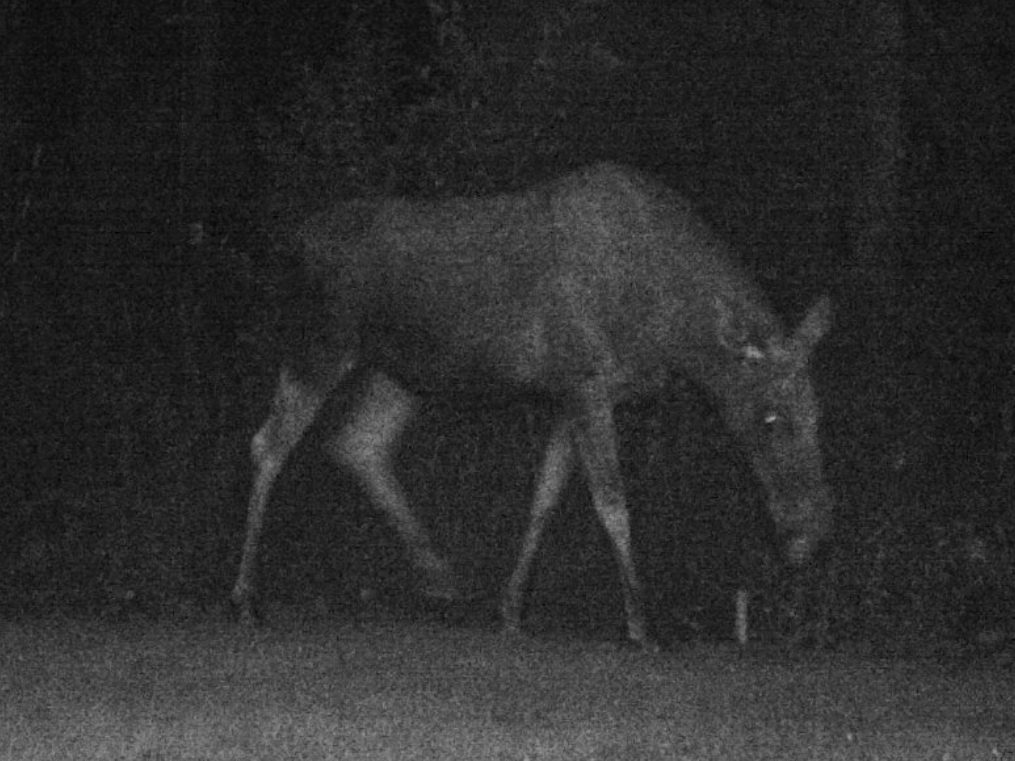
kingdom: Animalia
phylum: Chordata
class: Mammalia
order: Artiodactyla
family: Cervidae
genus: Alces
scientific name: Alces alces
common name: Moose
